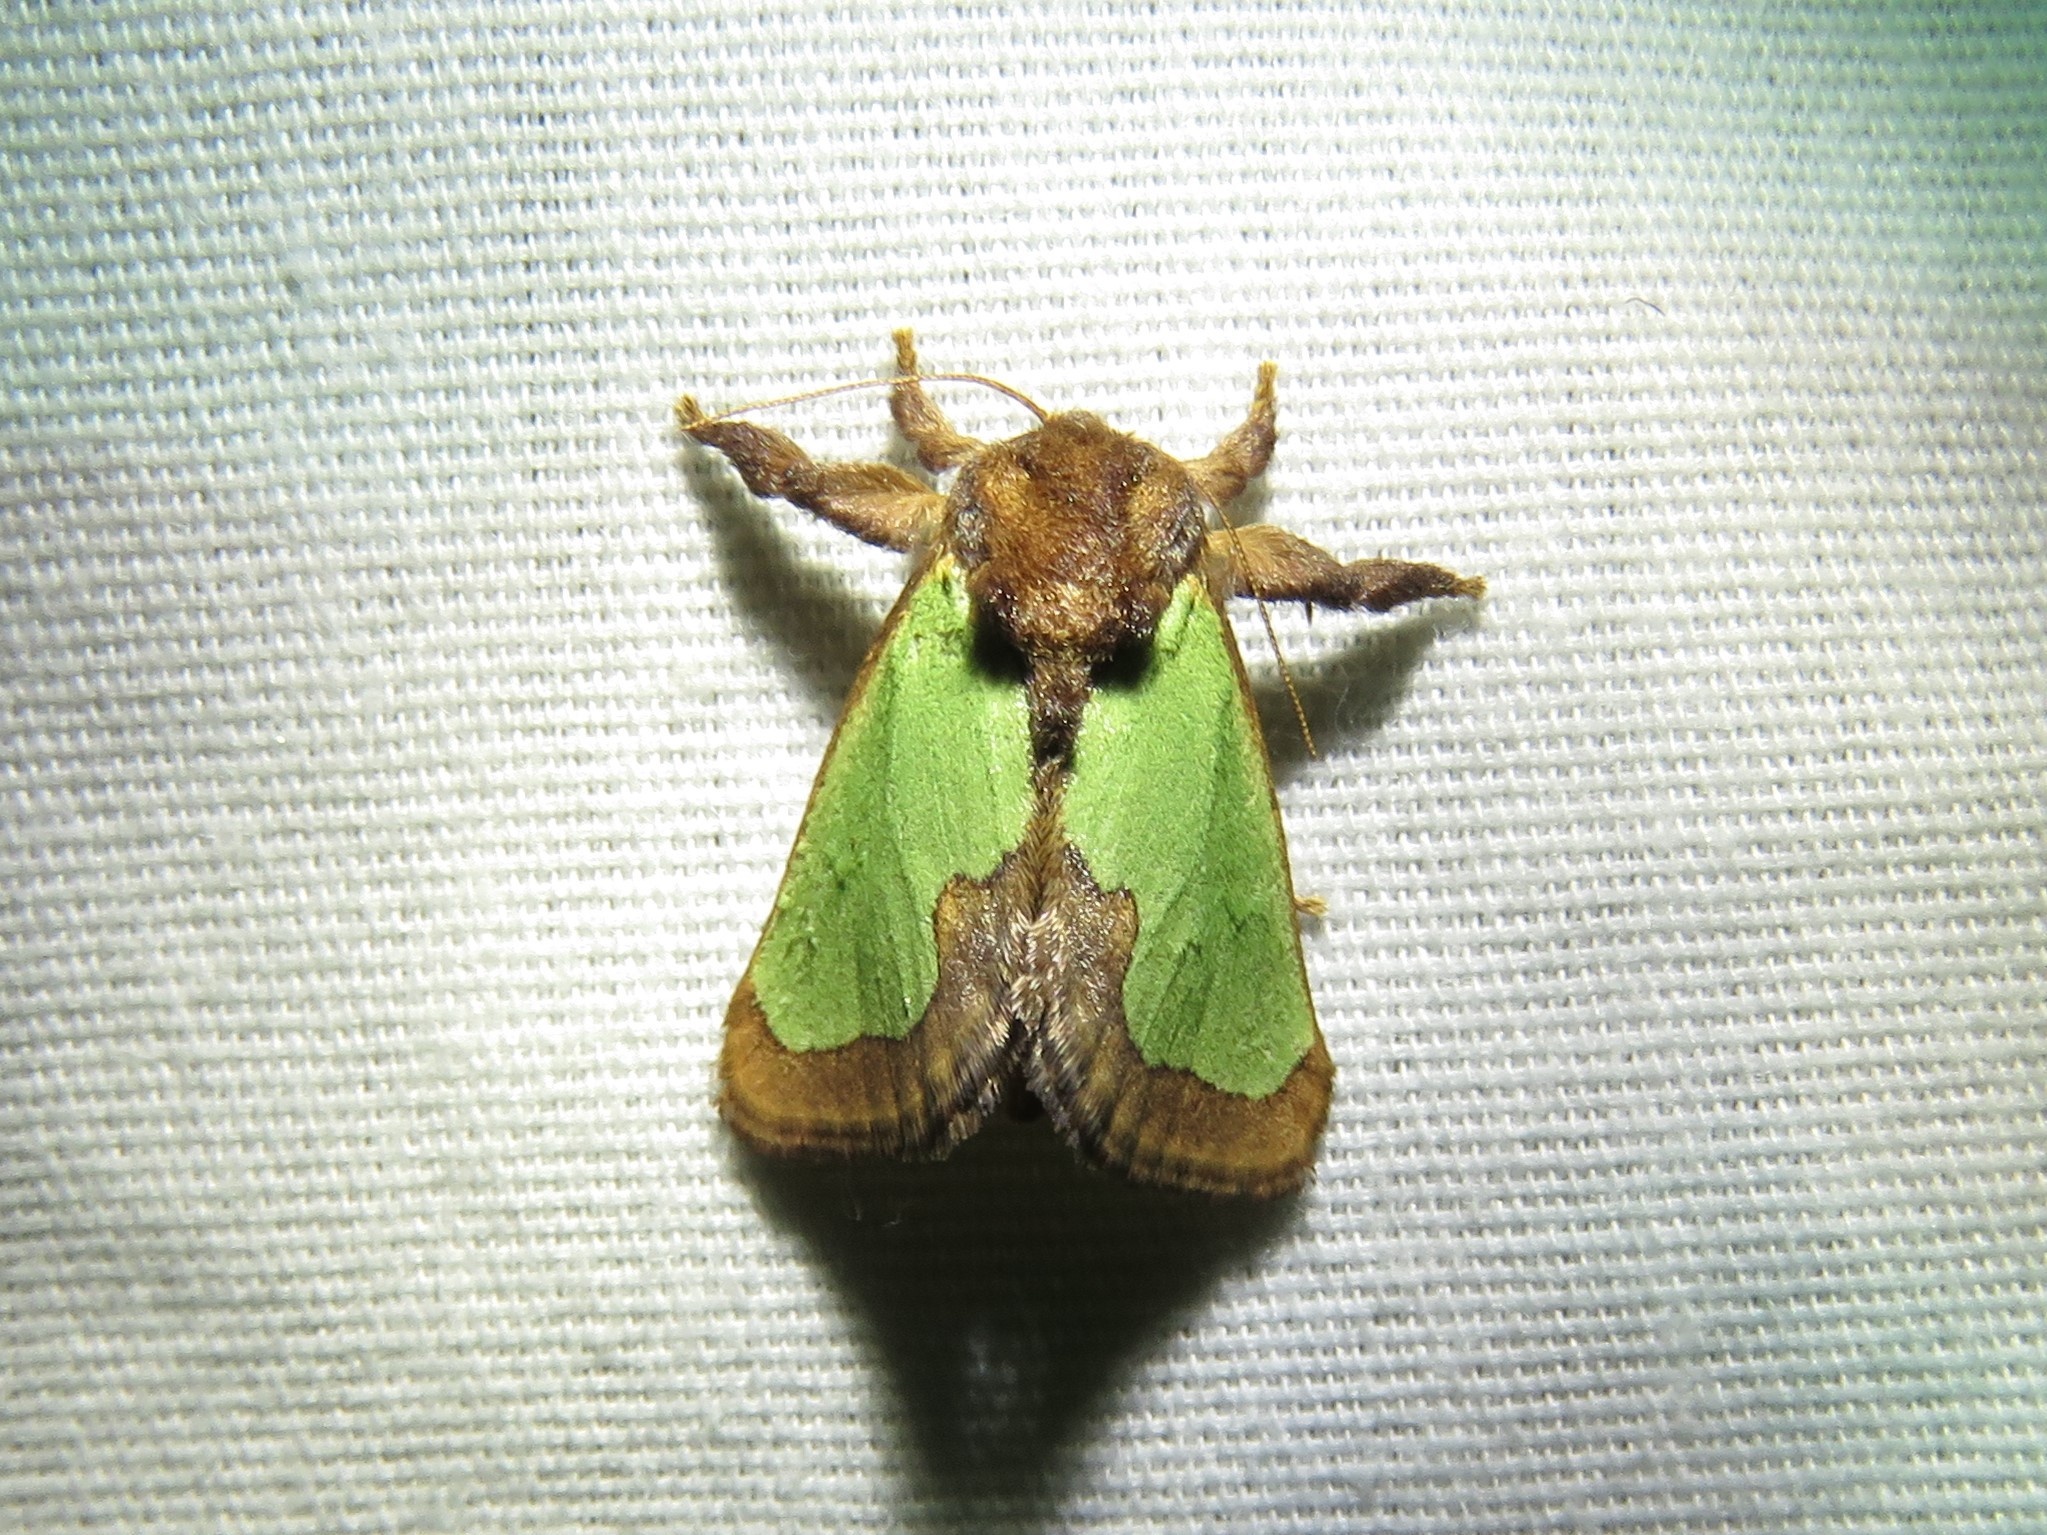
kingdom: Animalia
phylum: Arthropoda
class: Insecta
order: Lepidoptera
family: Limacodidae
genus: Euclea
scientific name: Euclea incisa
